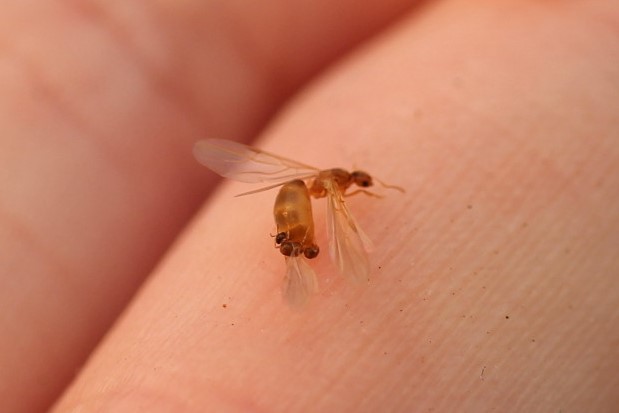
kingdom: Animalia
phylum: Arthropoda
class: Insecta
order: Hymenoptera
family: Formicidae
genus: Brachymyrmex
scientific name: Brachymyrmex depilis
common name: Hairless rover ant
